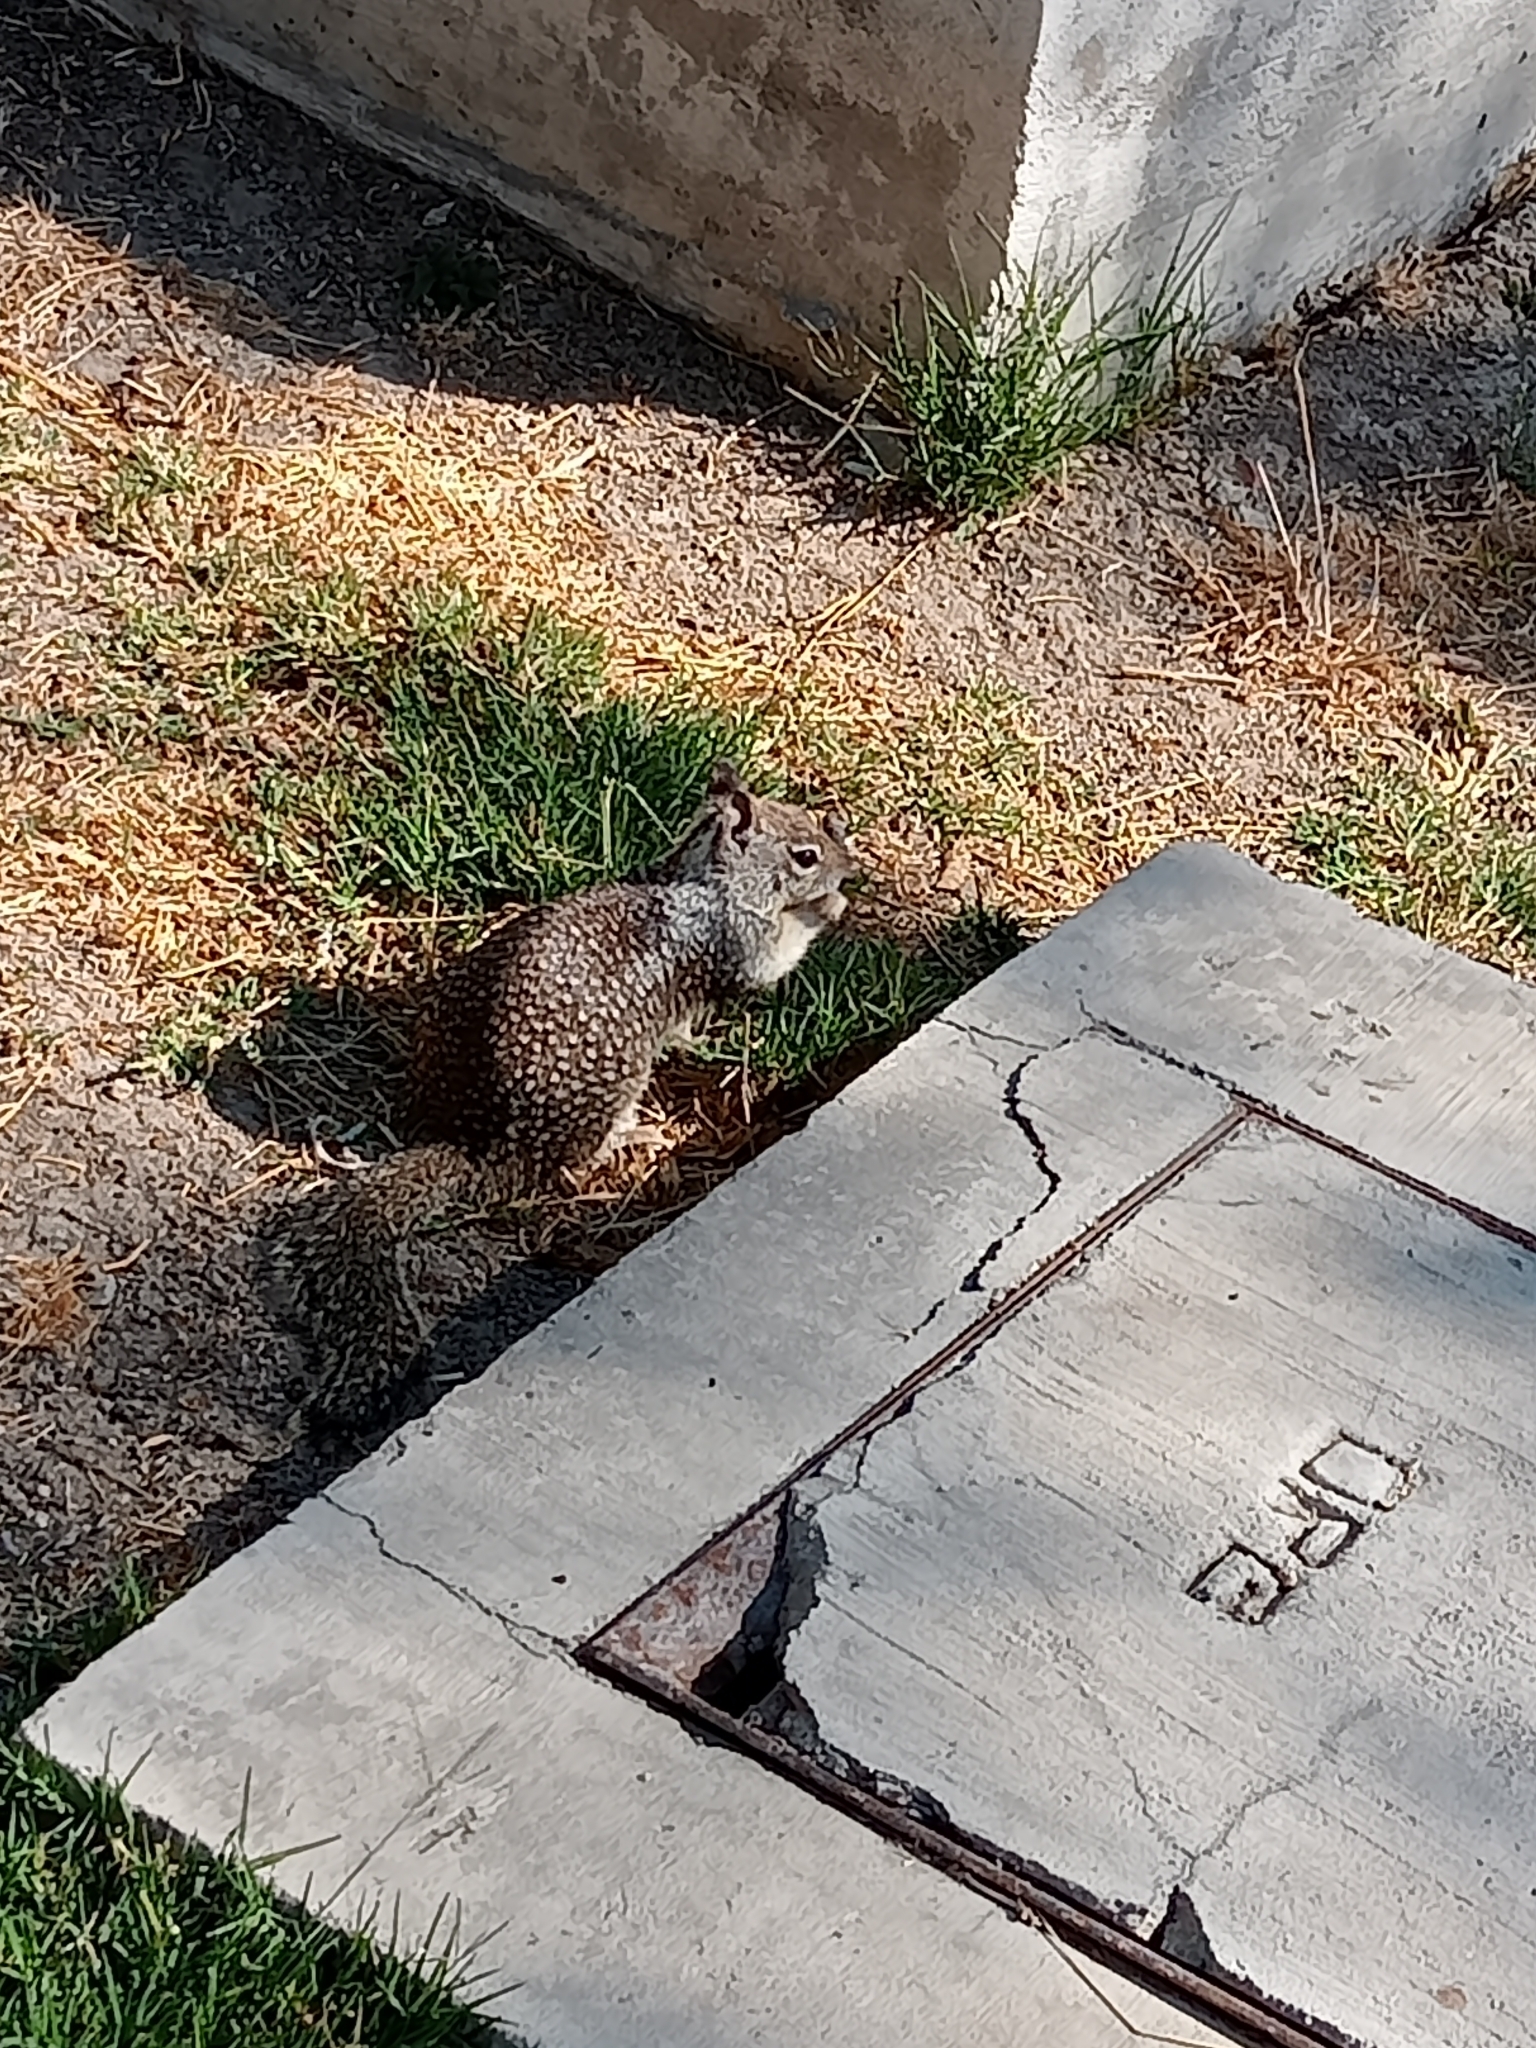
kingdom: Animalia
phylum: Chordata
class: Mammalia
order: Rodentia
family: Sciuridae
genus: Otospermophilus
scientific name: Otospermophilus beecheyi
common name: California ground squirrel
